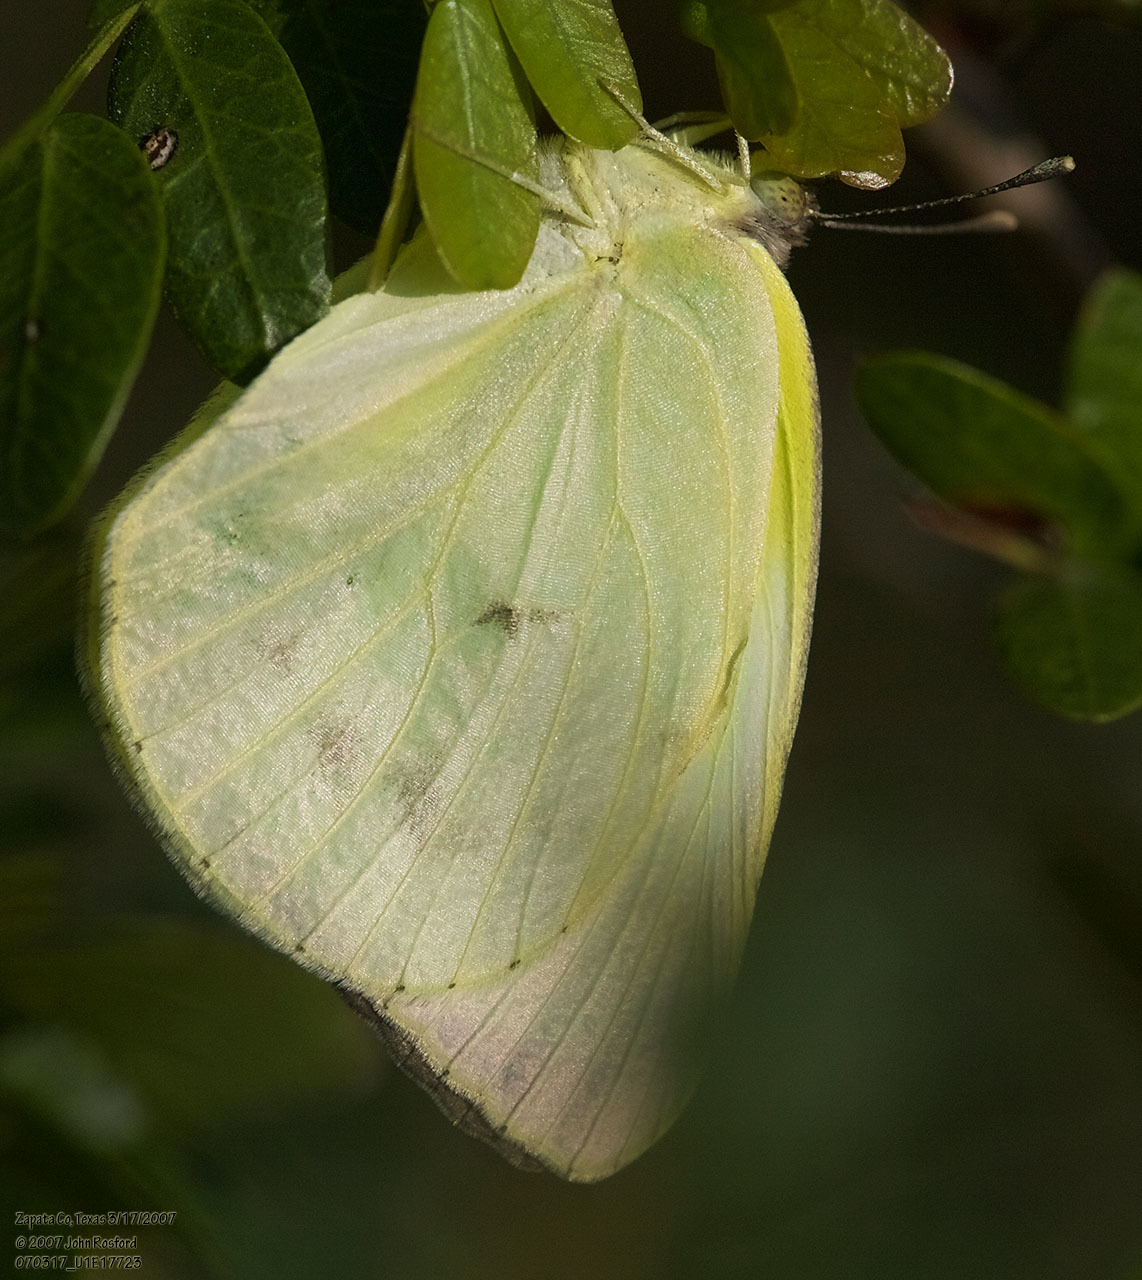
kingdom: Animalia
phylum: Arthropoda
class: Insecta
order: Lepidoptera
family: Pieridae
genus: Kricogonia
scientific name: Kricogonia lyside
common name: Guayacan sulphur,
